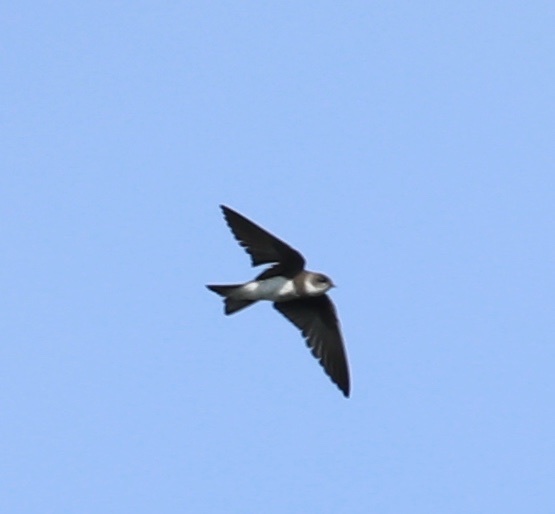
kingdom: Animalia
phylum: Chordata
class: Aves
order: Passeriformes
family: Hirundinidae
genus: Riparia
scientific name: Riparia riparia
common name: Sand martin
